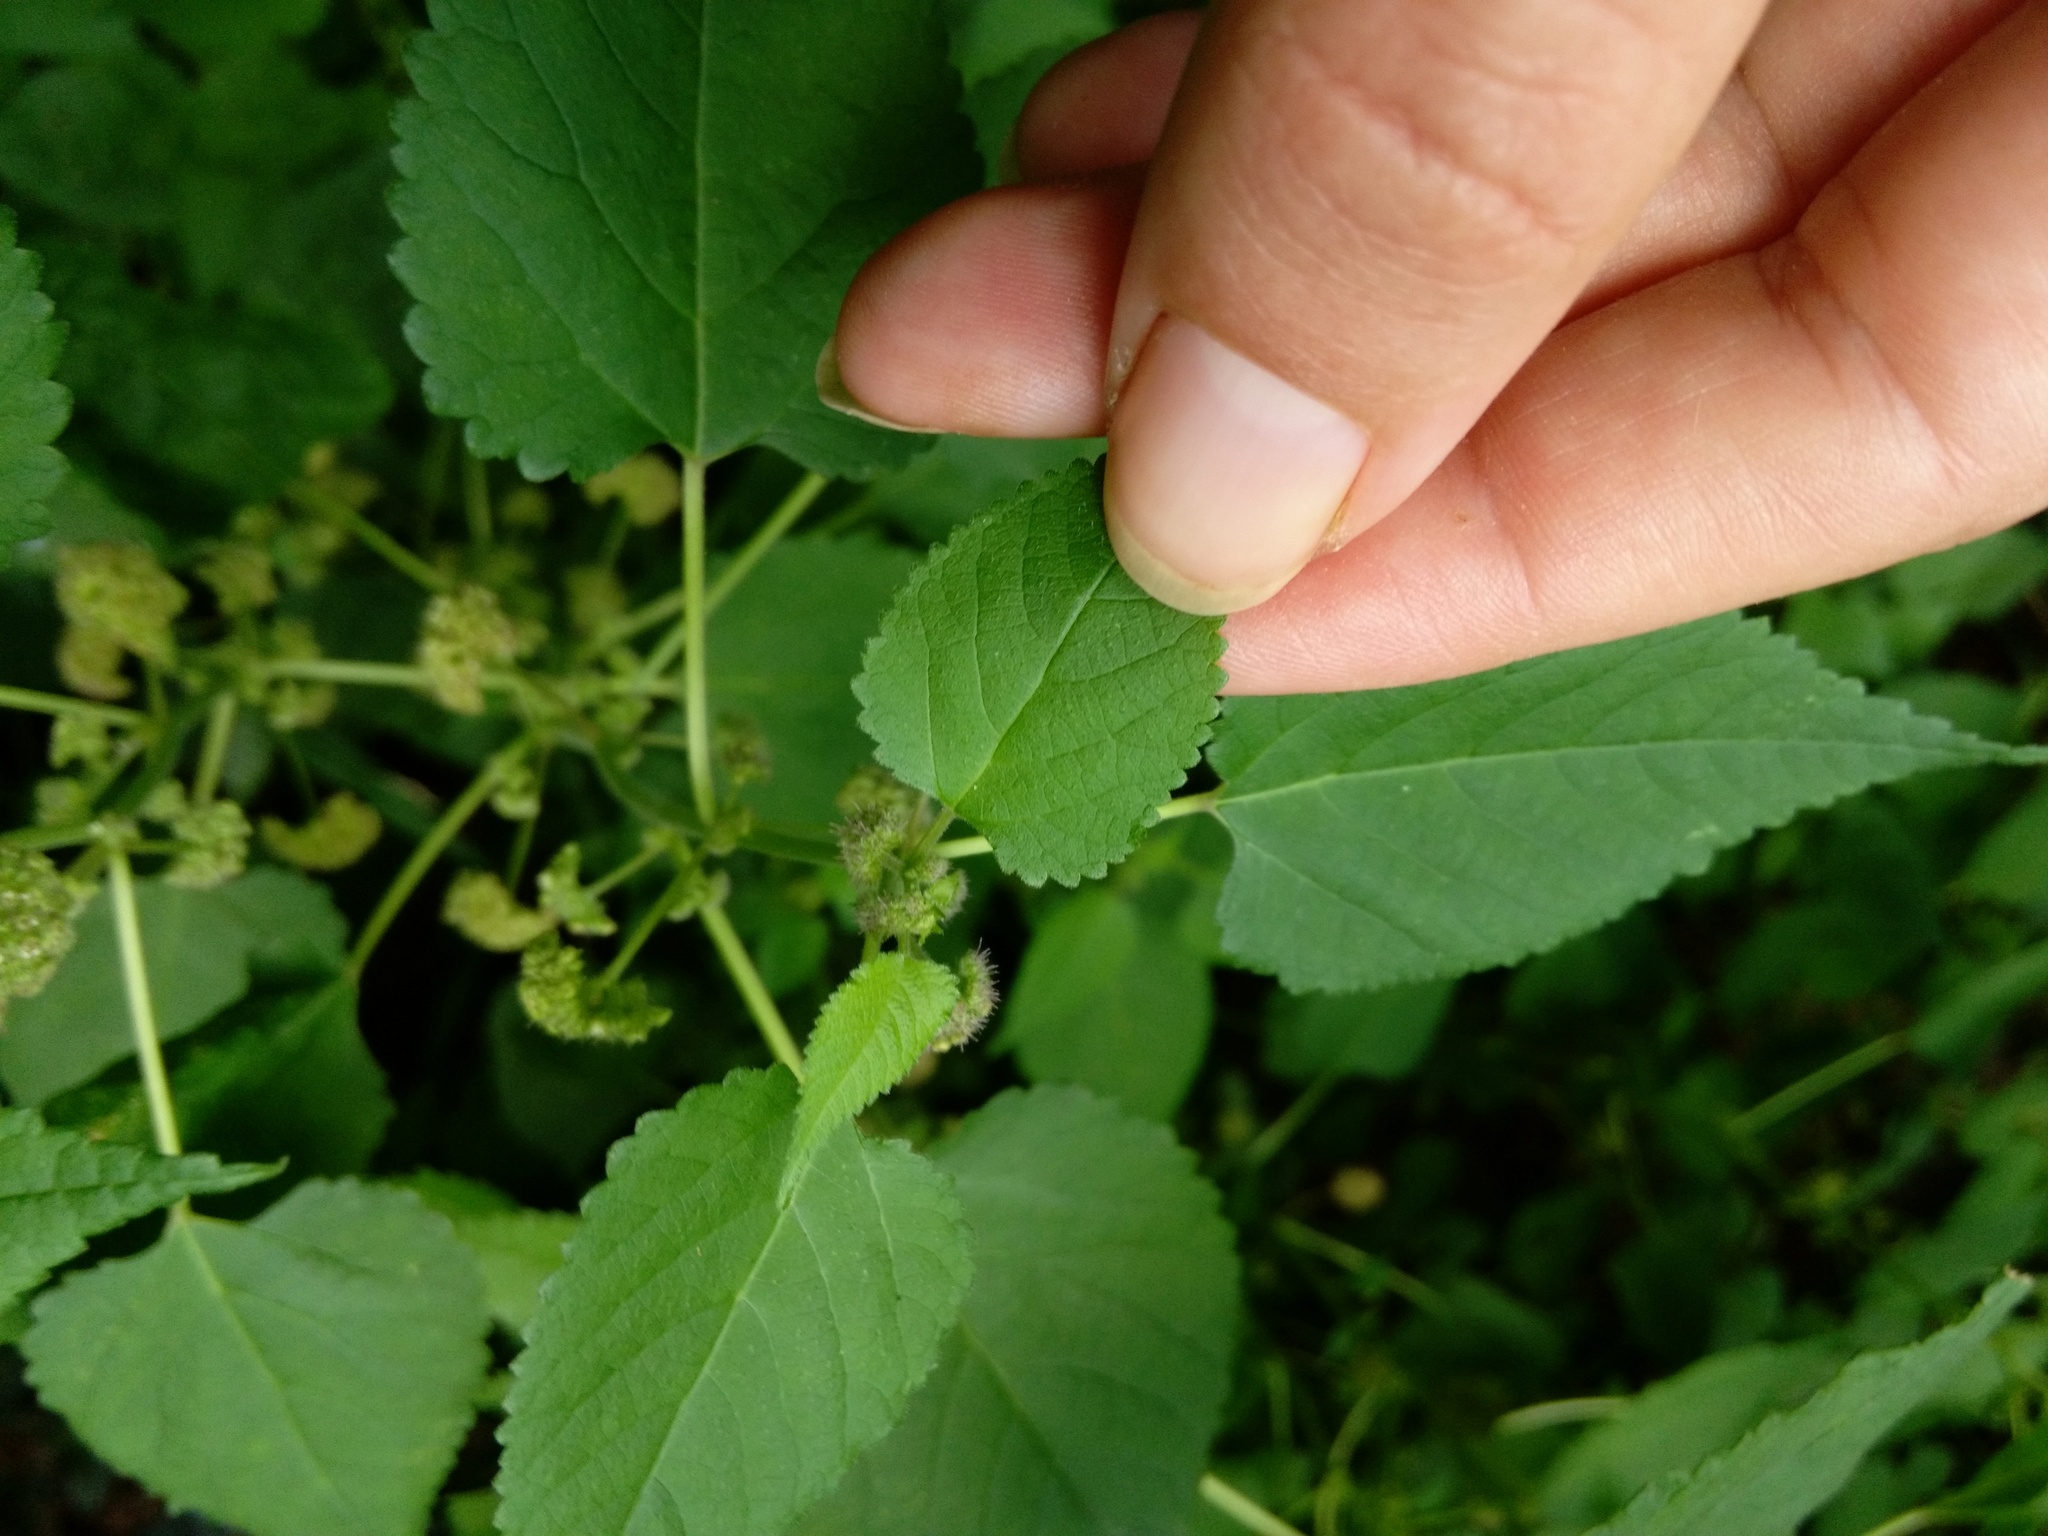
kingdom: Plantae
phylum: Tracheophyta
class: Magnoliopsida
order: Rosales
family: Moraceae
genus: Fatoua
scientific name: Fatoua villosa
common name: Hairy crabweed
